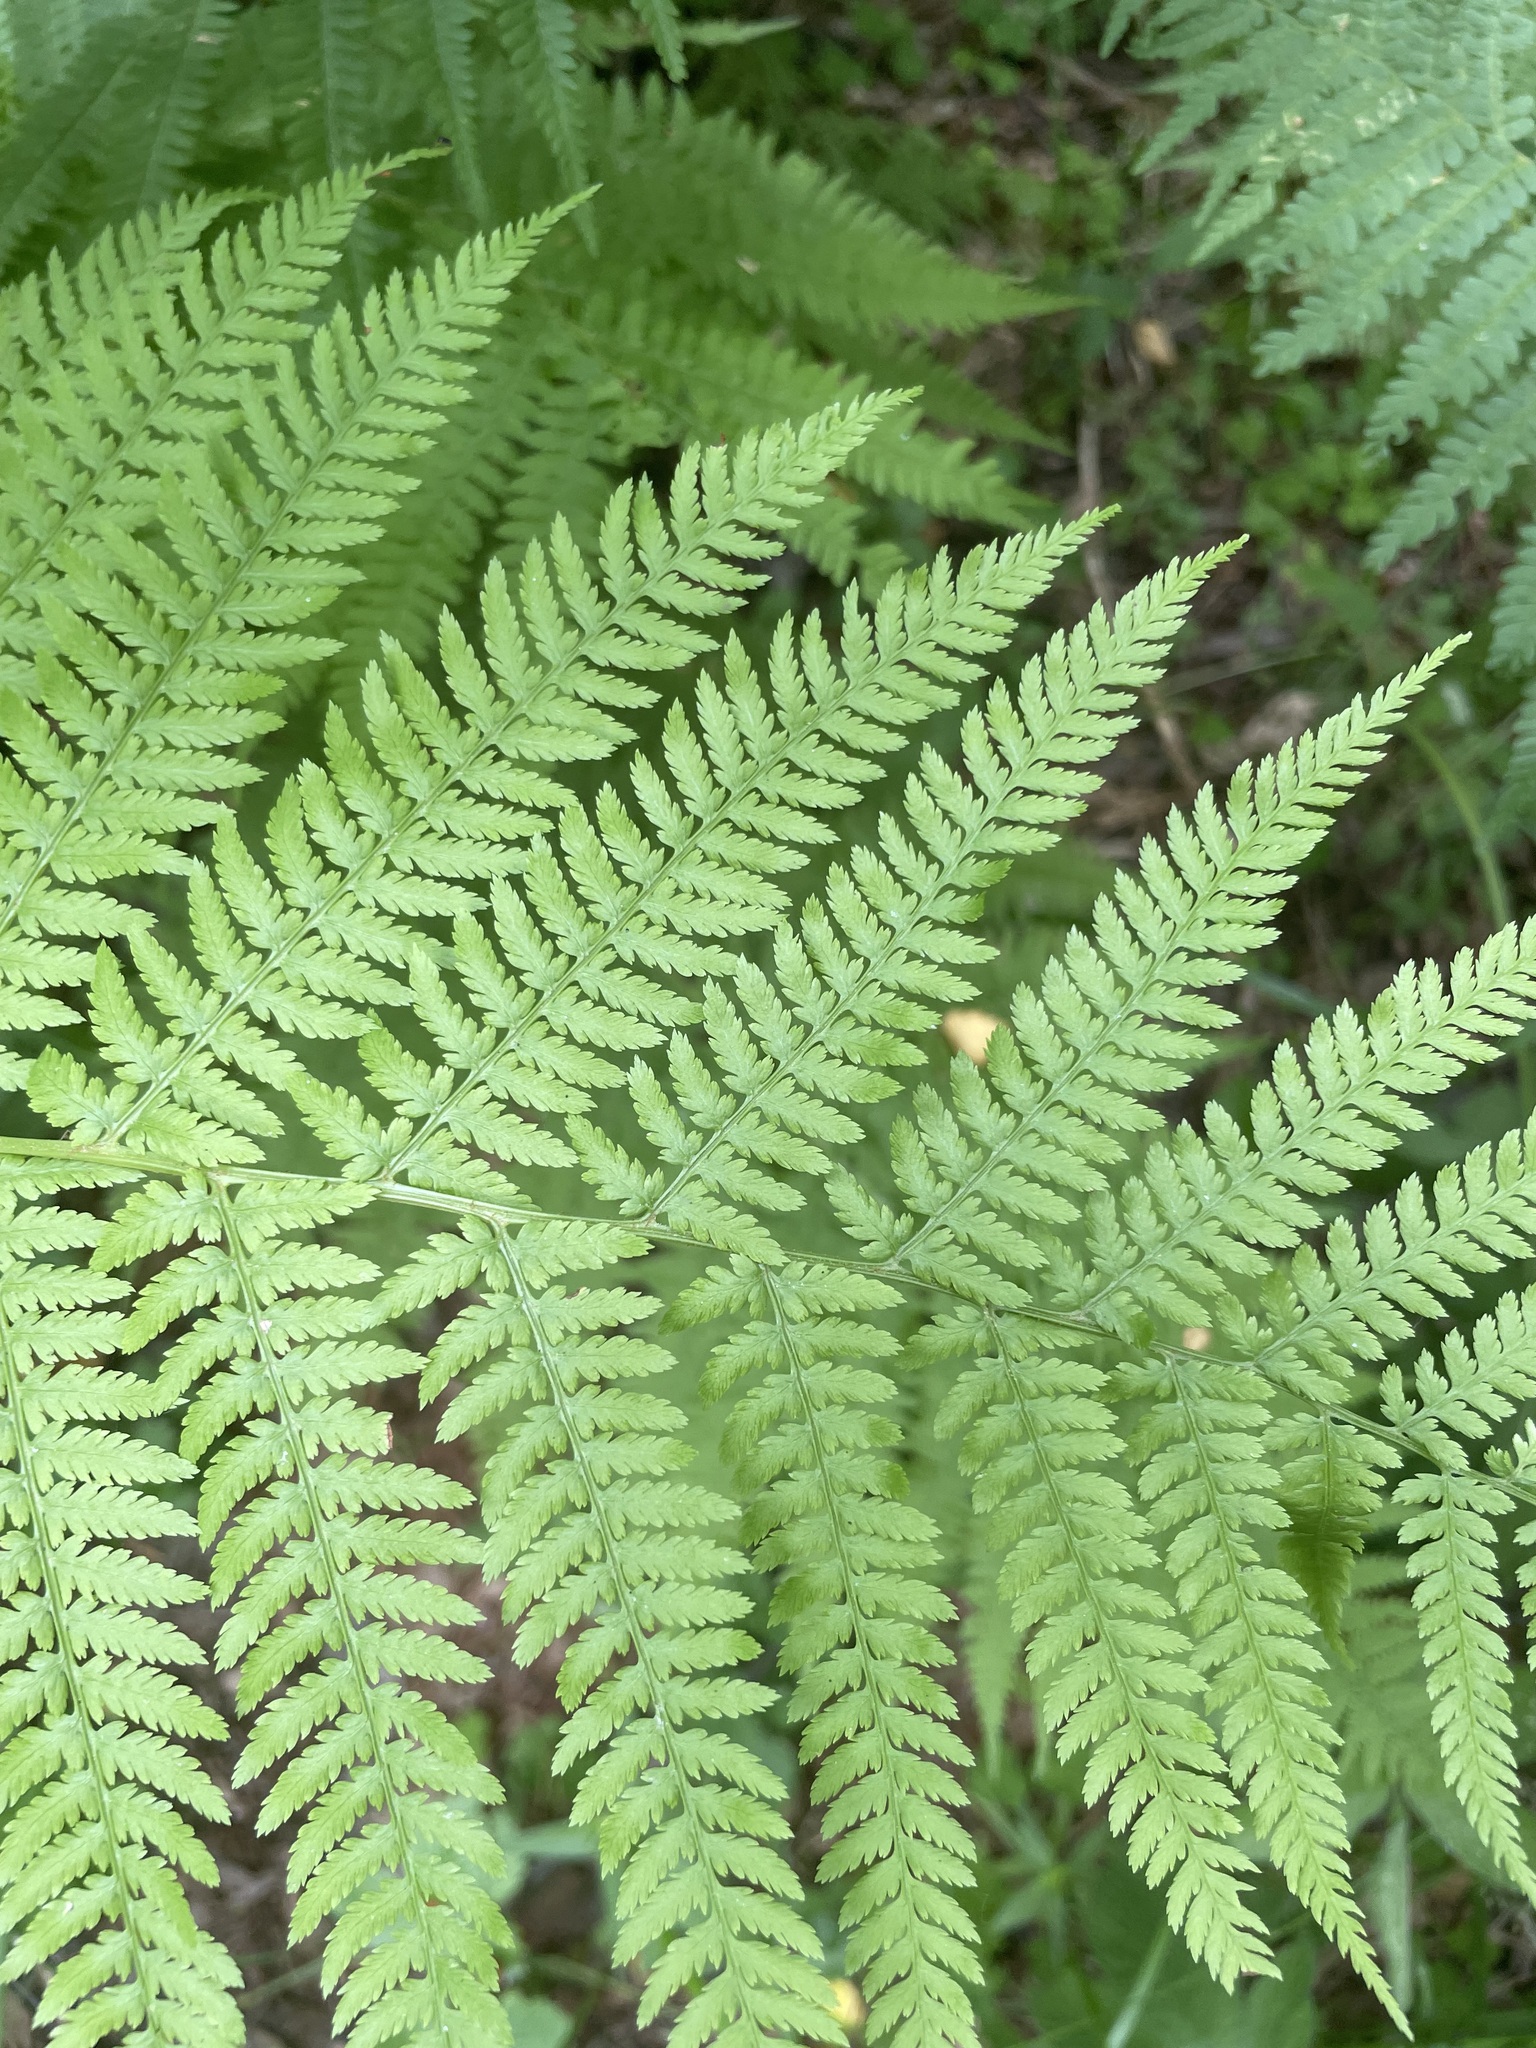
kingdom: Plantae
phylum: Tracheophyta
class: Polypodiopsida
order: Polypodiales
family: Athyriaceae
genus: Athyrium
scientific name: Athyrium filix-femina
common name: Lady fern
